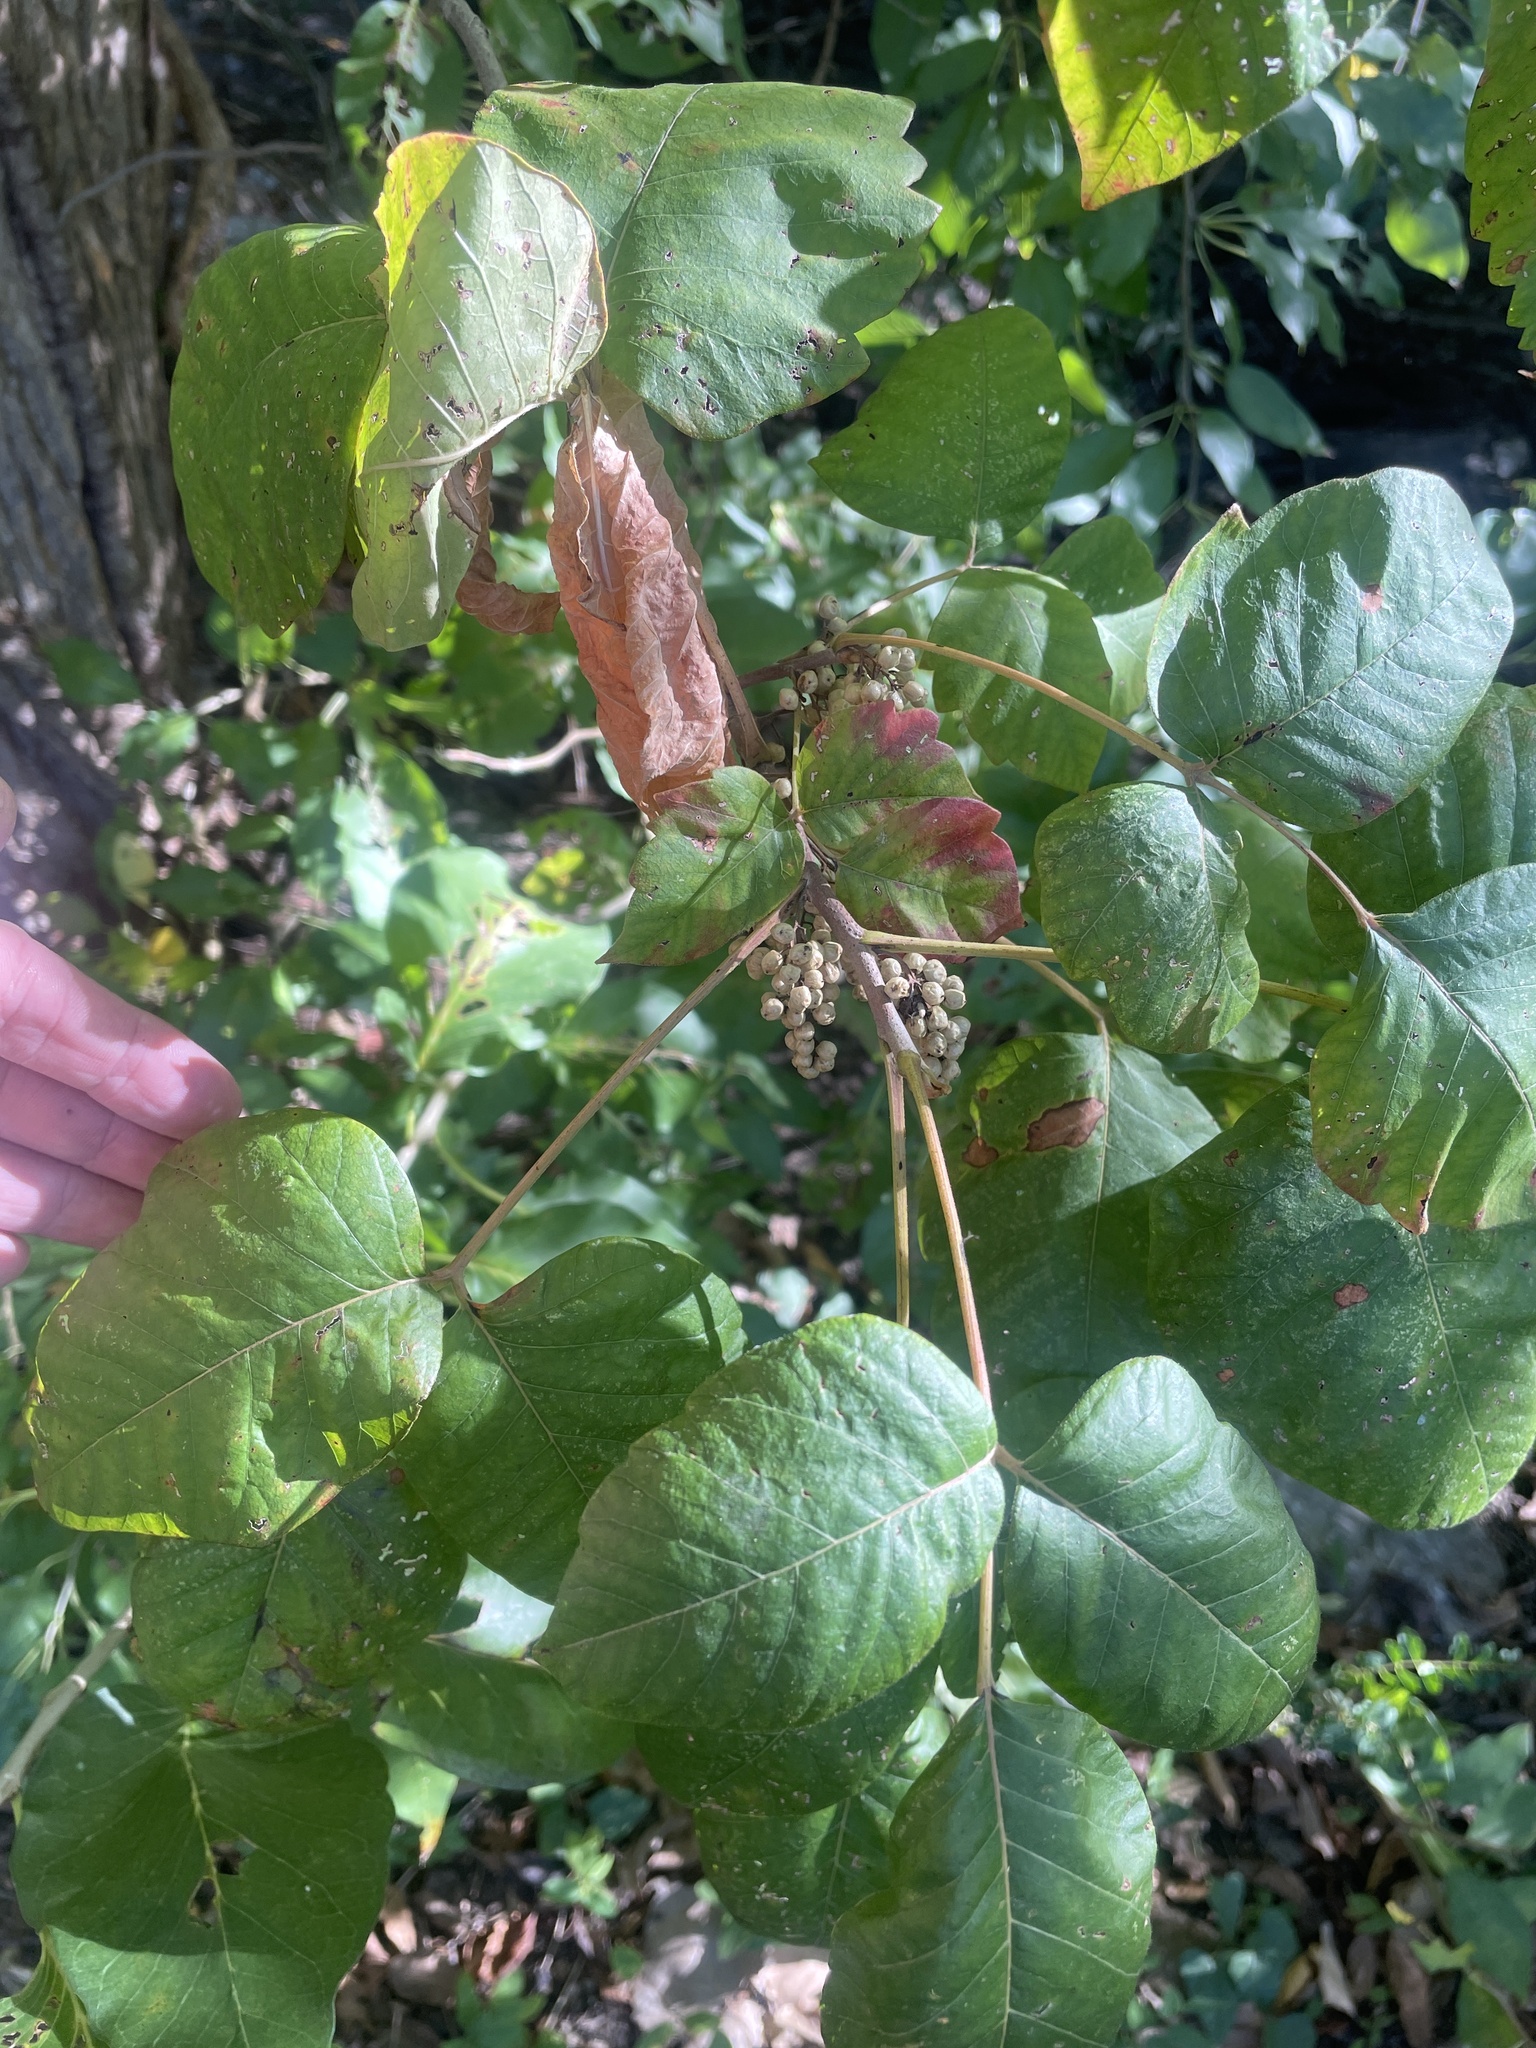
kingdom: Plantae
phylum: Tracheophyta
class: Magnoliopsida
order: Sapindales
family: Anacardiaceae
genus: Toxicodendron
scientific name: Toxicodendron radicans
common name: Poison ivy
